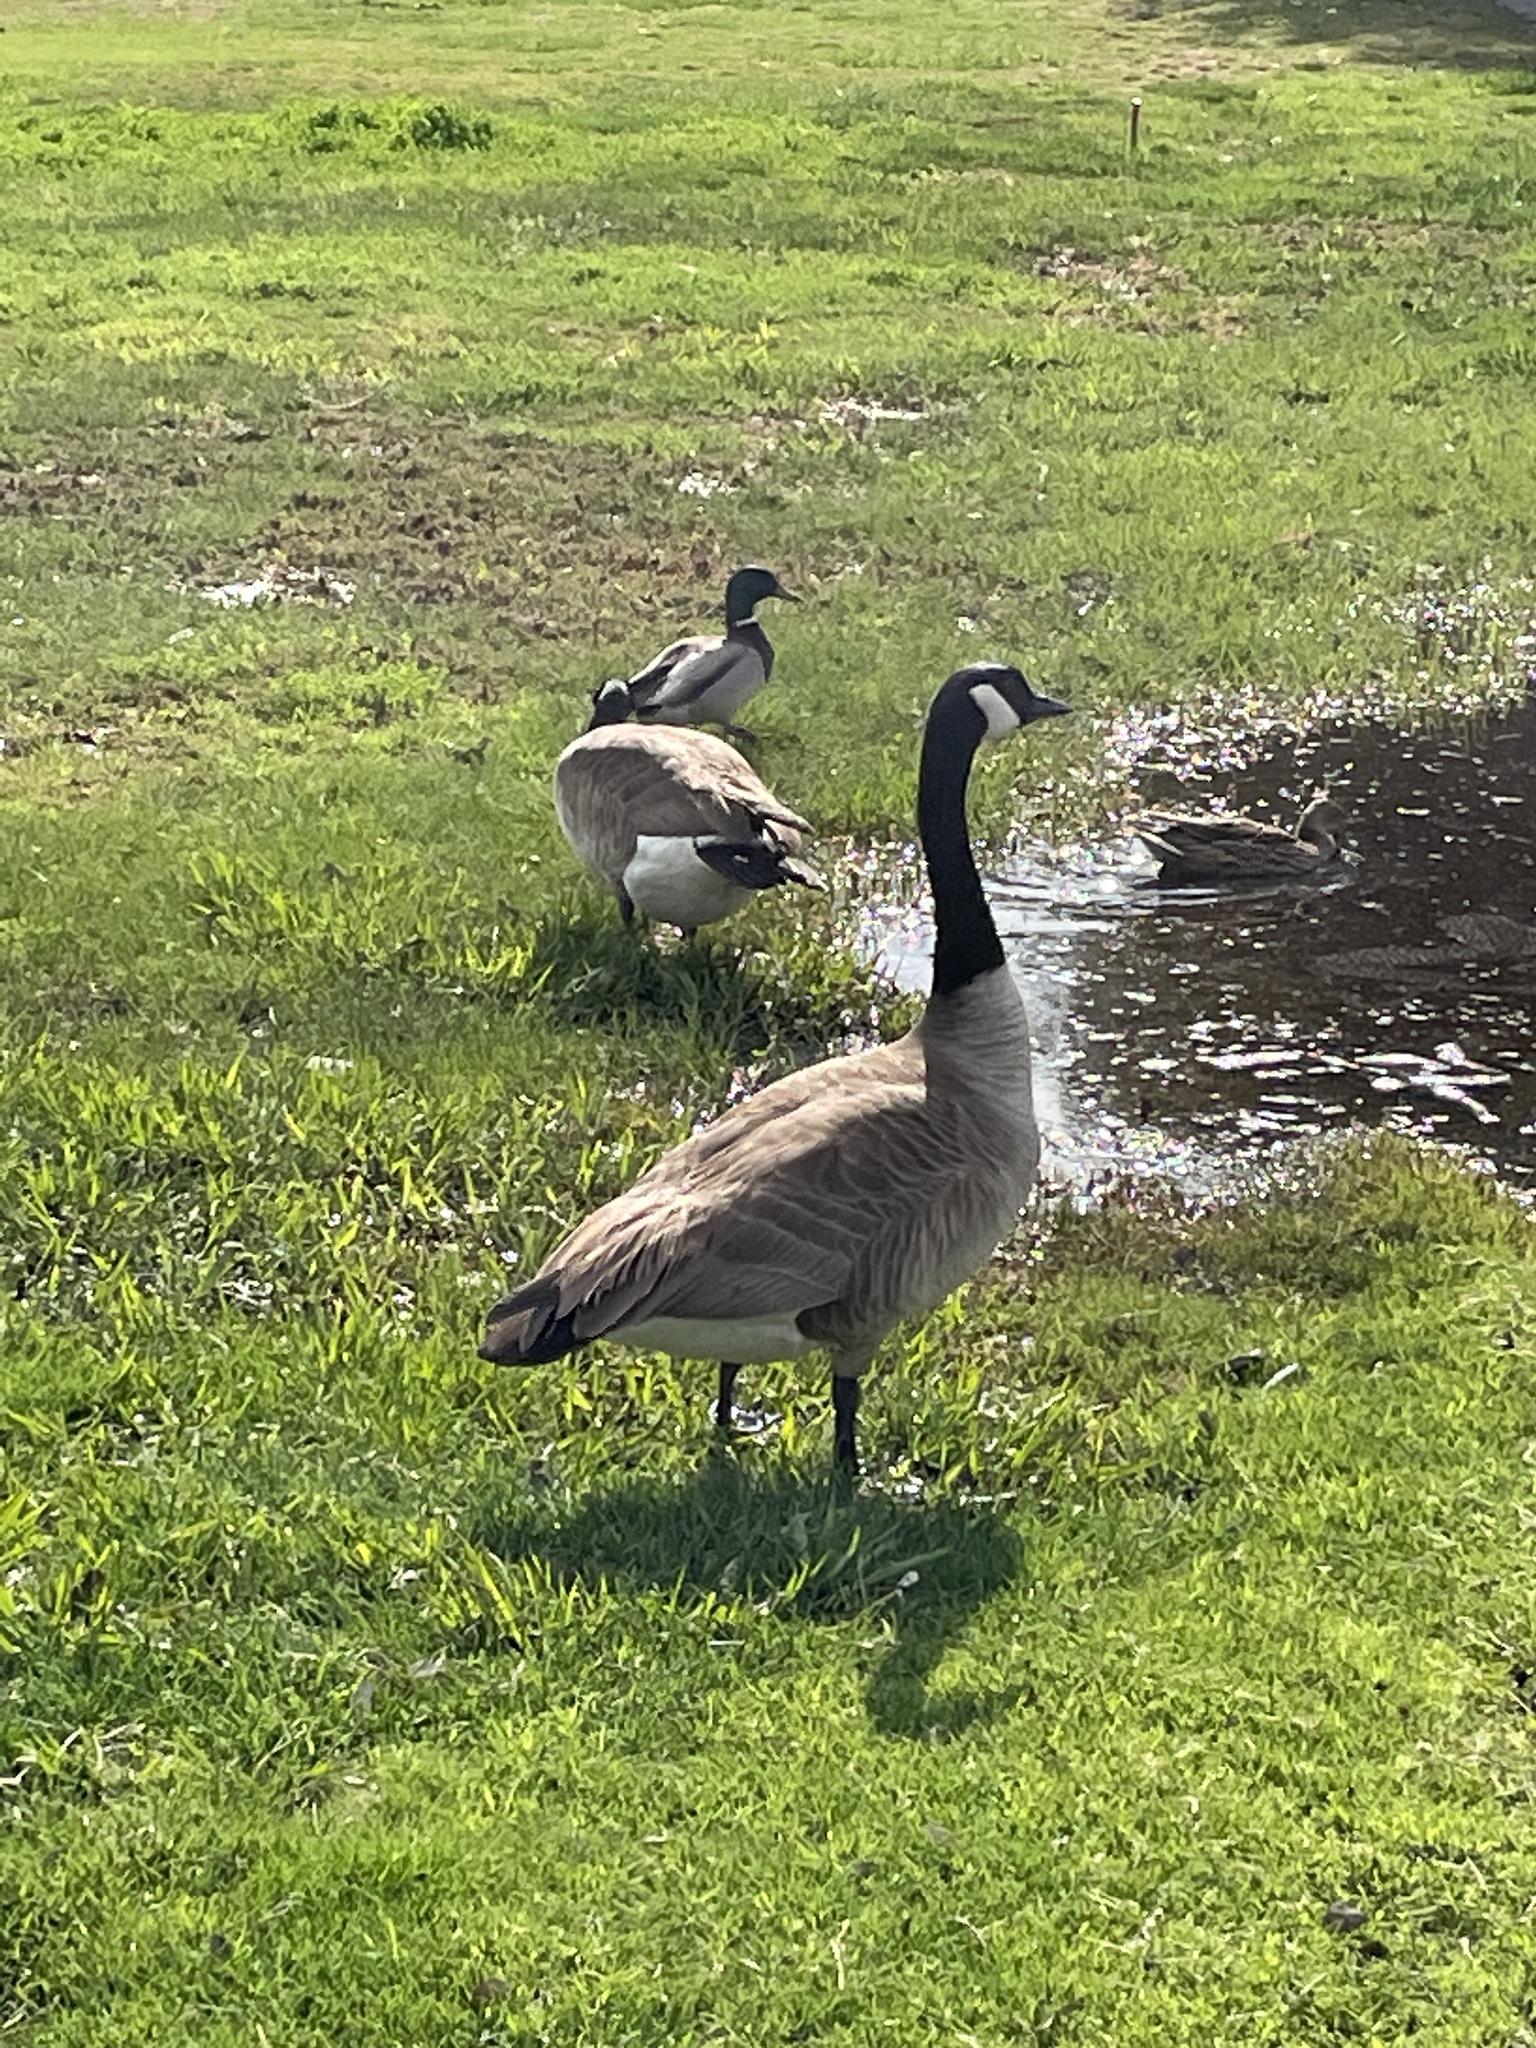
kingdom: Animalia
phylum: Chordata
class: Aves
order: Anseriformes
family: Anatidae
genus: Branta
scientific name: Branta canadensis
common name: Canada goose
